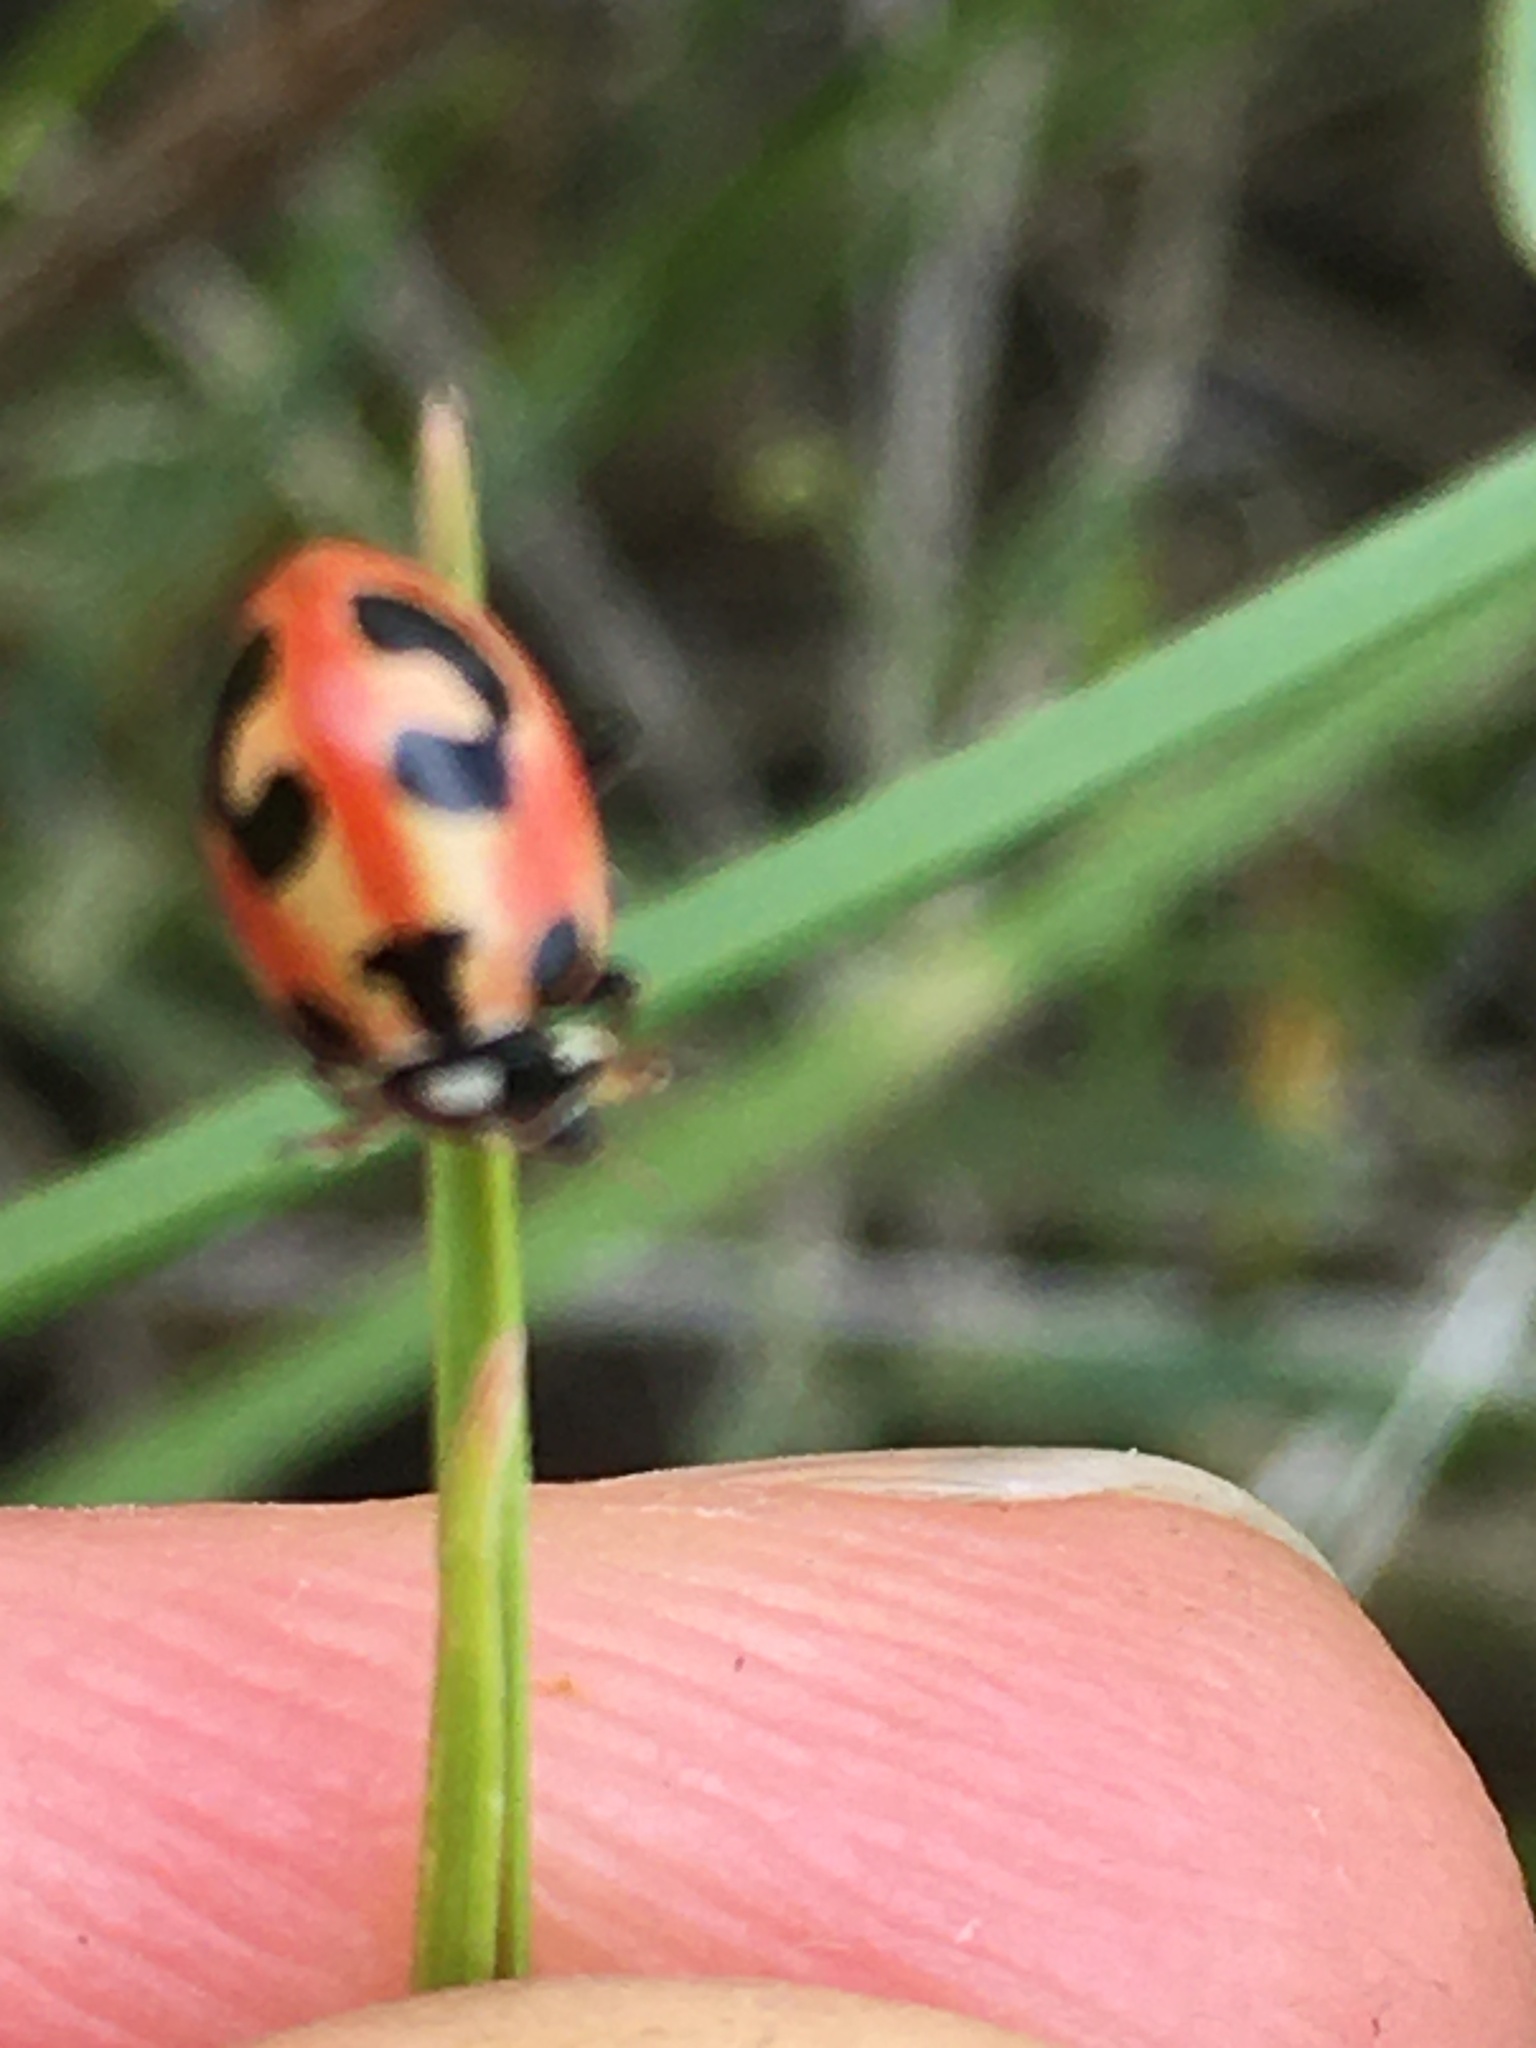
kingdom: Animalia
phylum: Arthropoda
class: Insecta
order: Coleoptera
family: Coccinellidae
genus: Hippodamia
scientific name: Hippodamia parenthesis
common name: Parenthesis lady beetle
